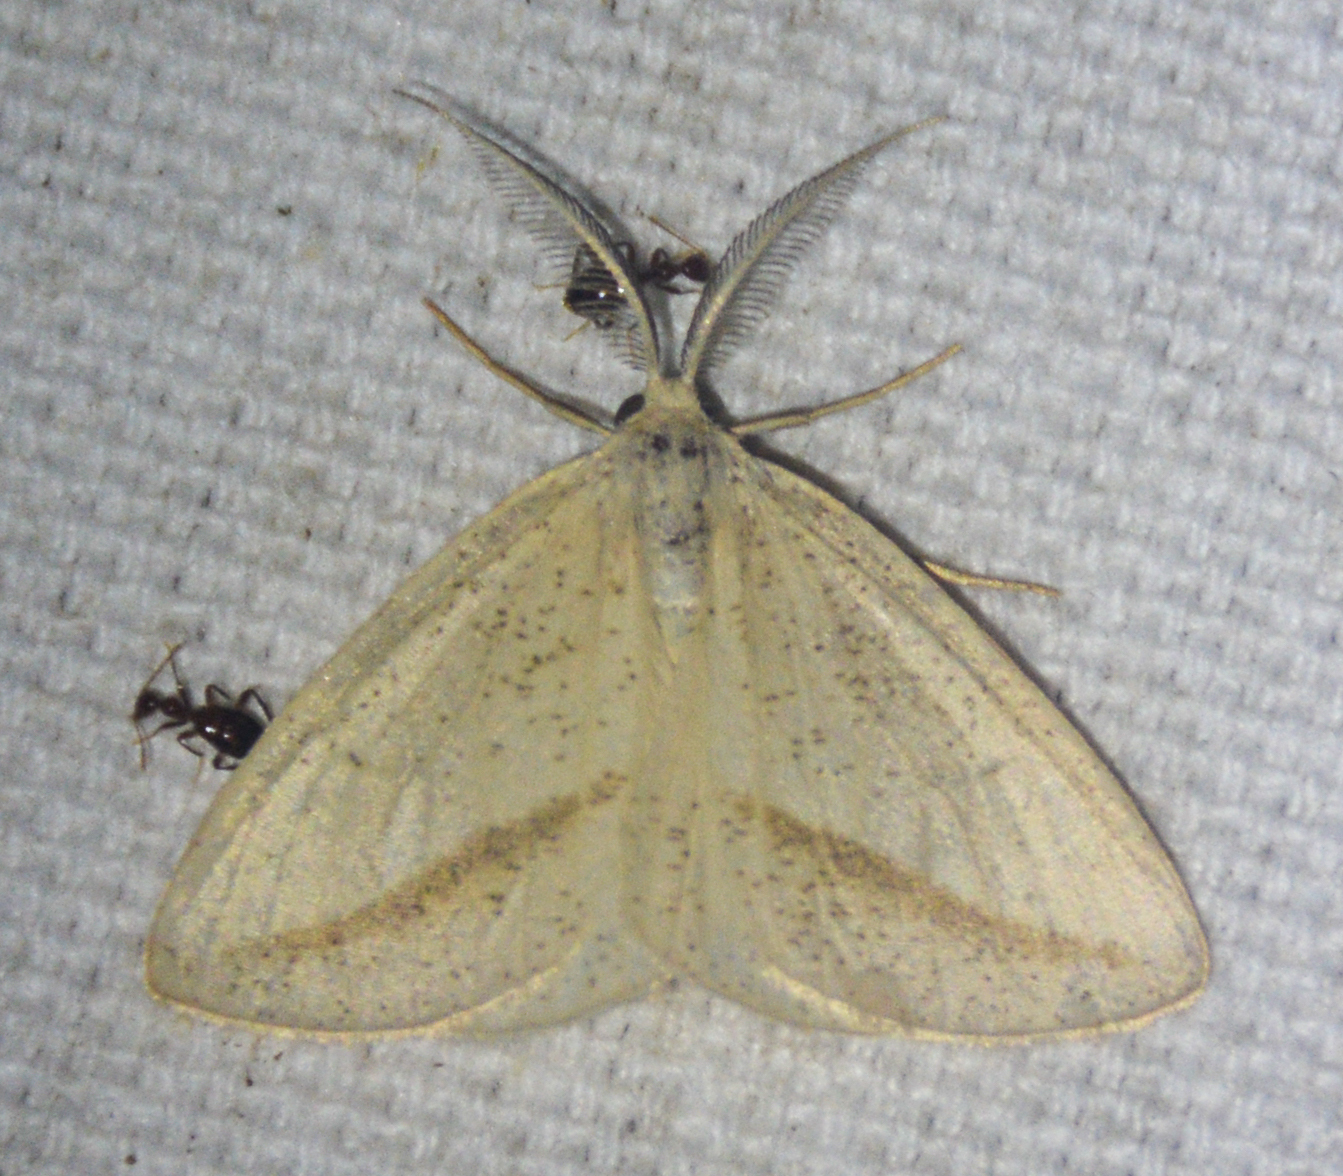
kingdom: Animalia
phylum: Arthropoda
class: Insecta
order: Lepidoptera
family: Geometridae
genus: Lychnosea
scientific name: Lychnosea intermicata
